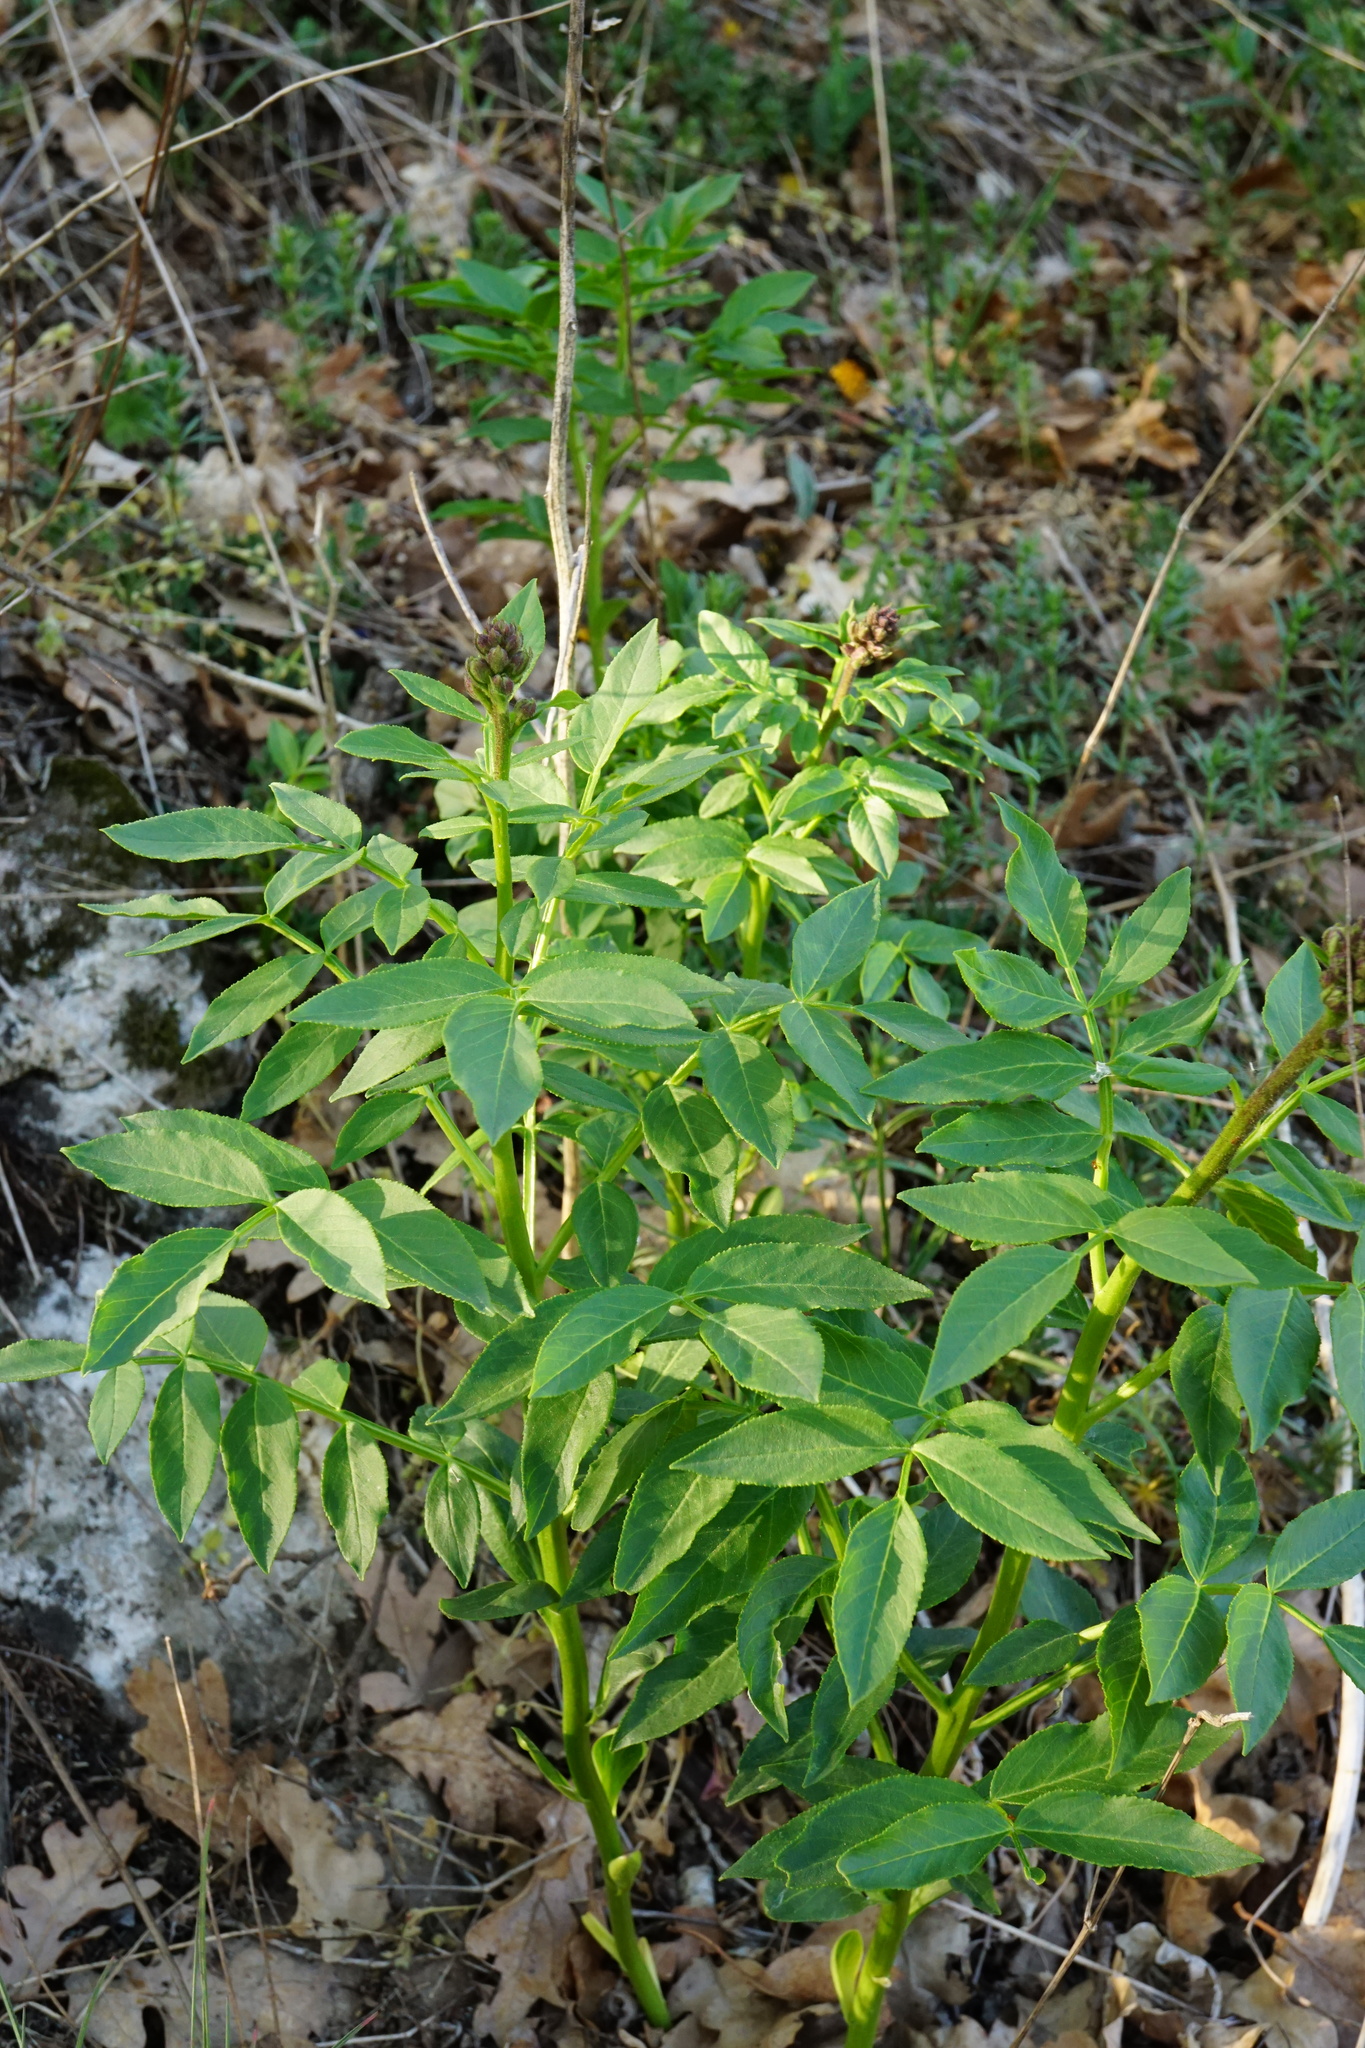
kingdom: Plantae
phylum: Tracheophyta
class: Magnoliopsida
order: Sapindales
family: Rutaceae
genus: Dictamnus
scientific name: Dictamnus albus
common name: Gasplant
